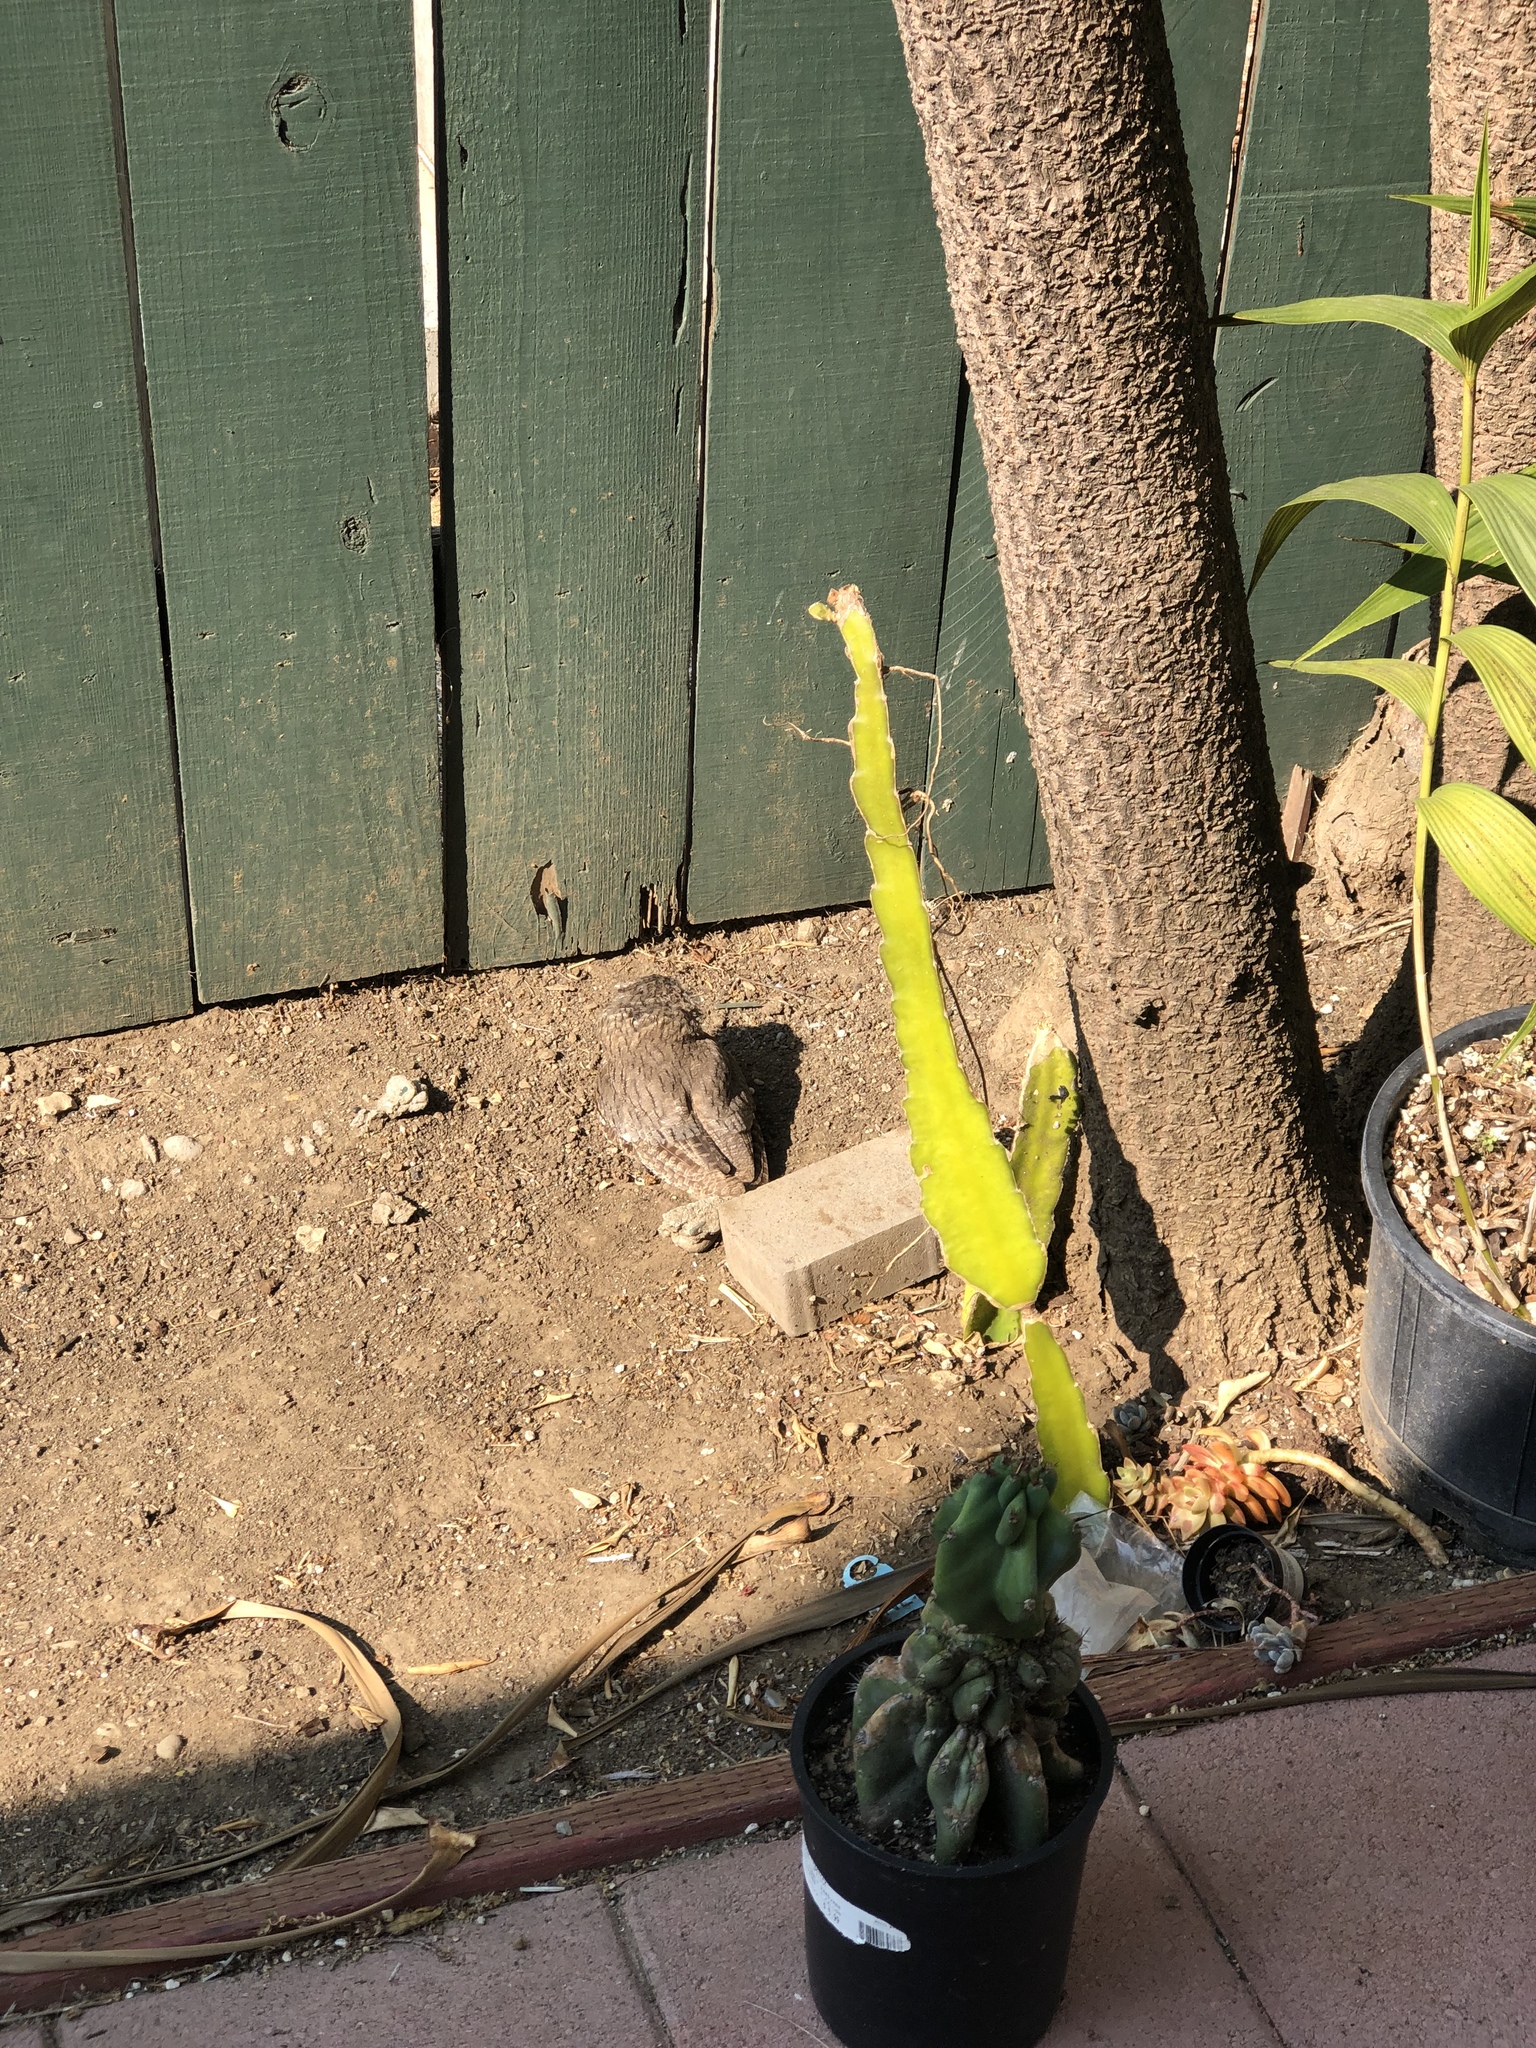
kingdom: Animalia
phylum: Chordata
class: Aves
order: Strigiformes
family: Strigidae
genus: Megascops
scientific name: Megascops kennicottii
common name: Western screech-owl
